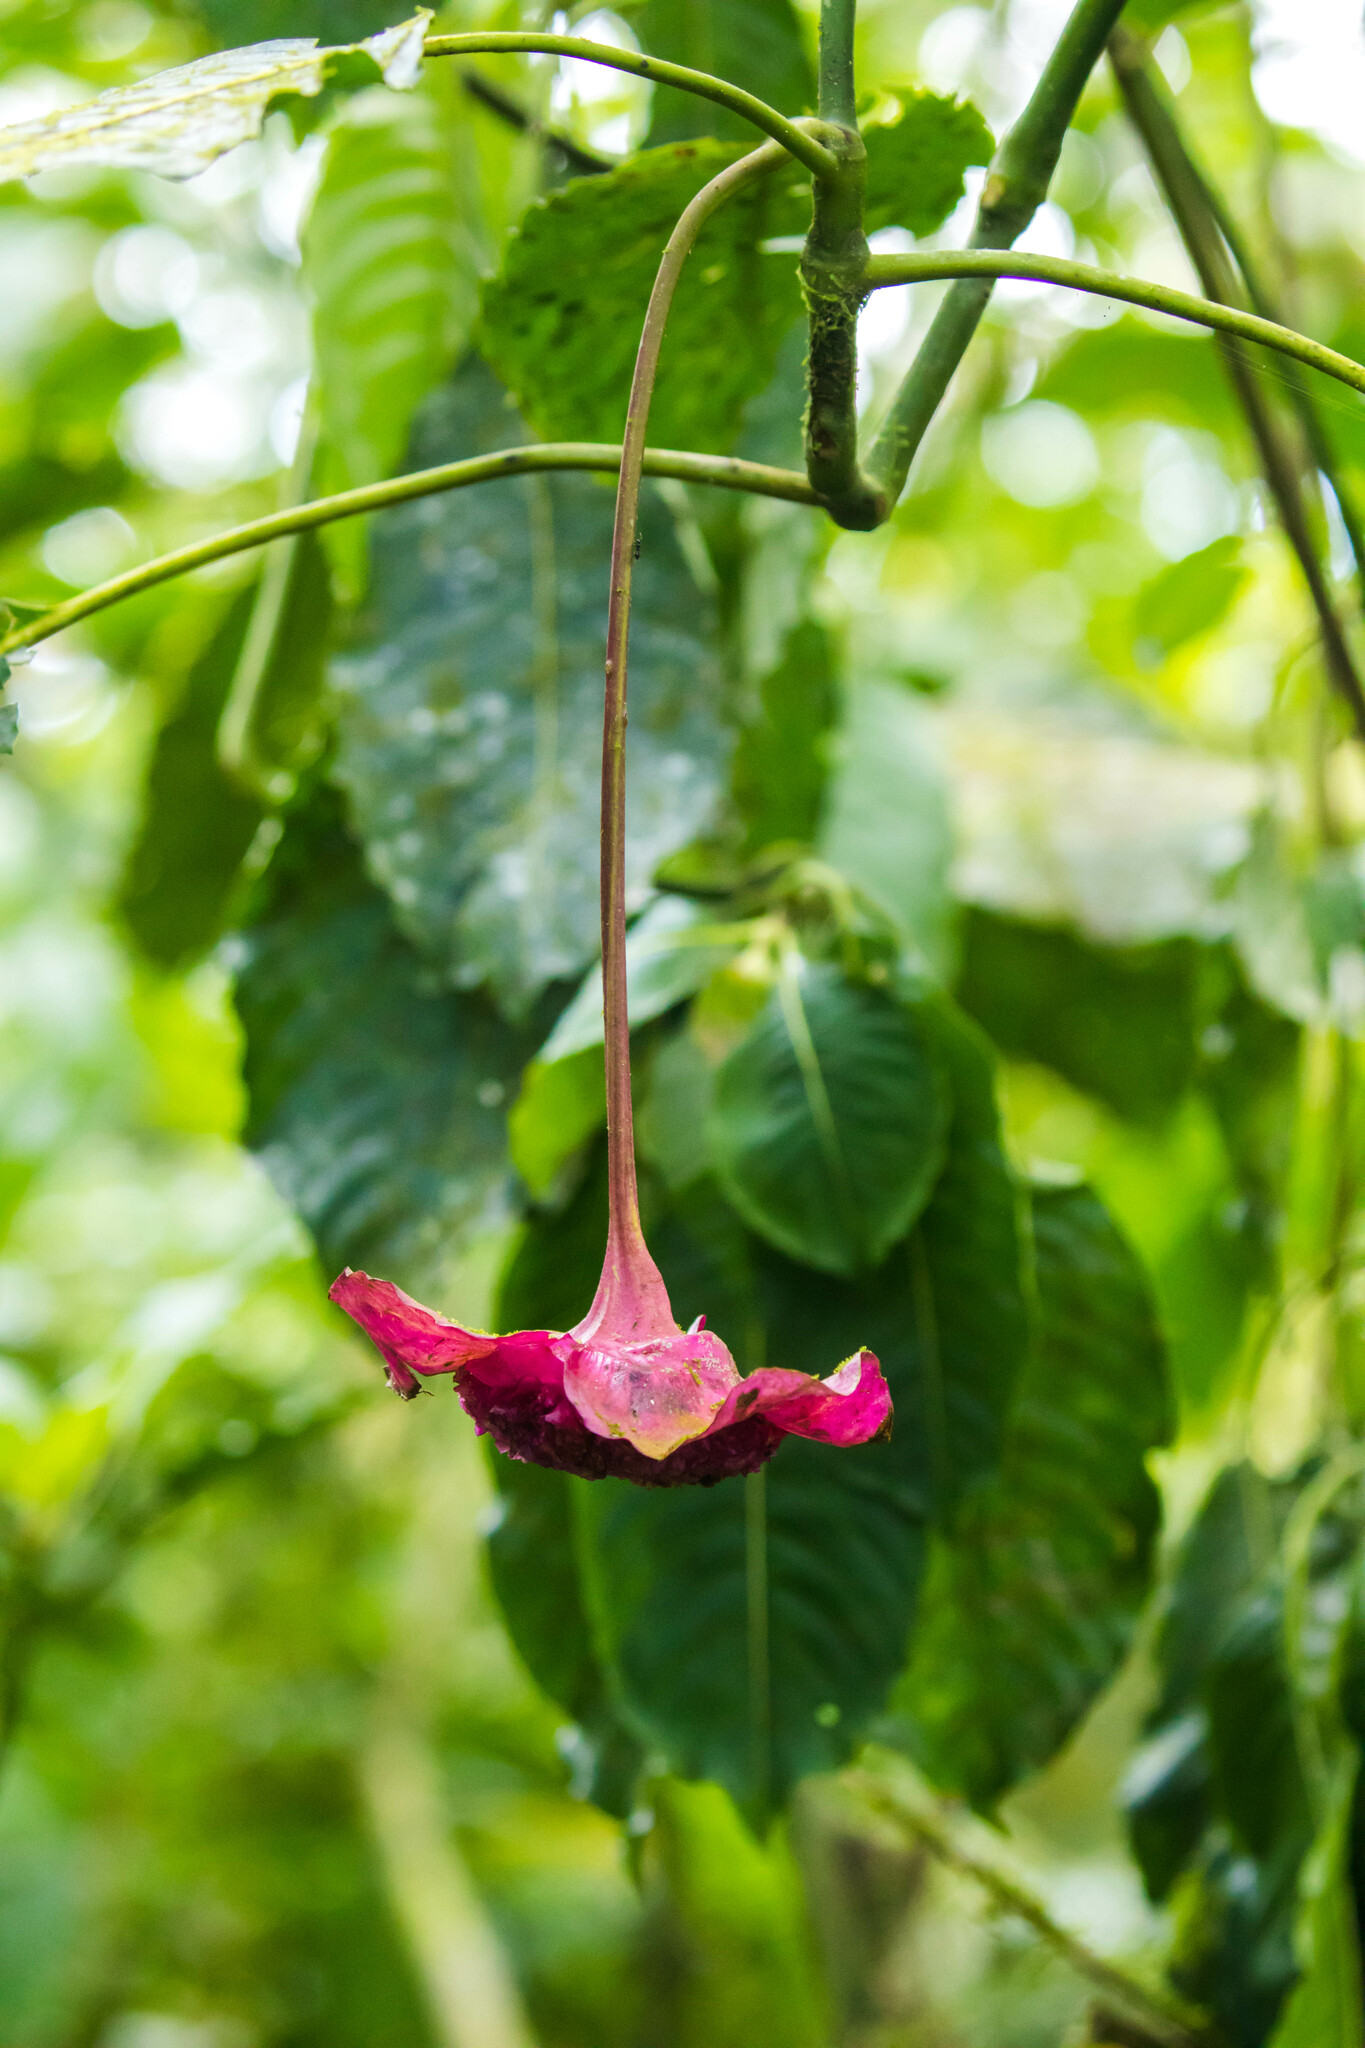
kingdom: Plantae
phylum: Tracheophyta
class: Magnoliopsida
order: Gentianales
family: Rubiaceae
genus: Palicourea
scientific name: Palicourea correae
